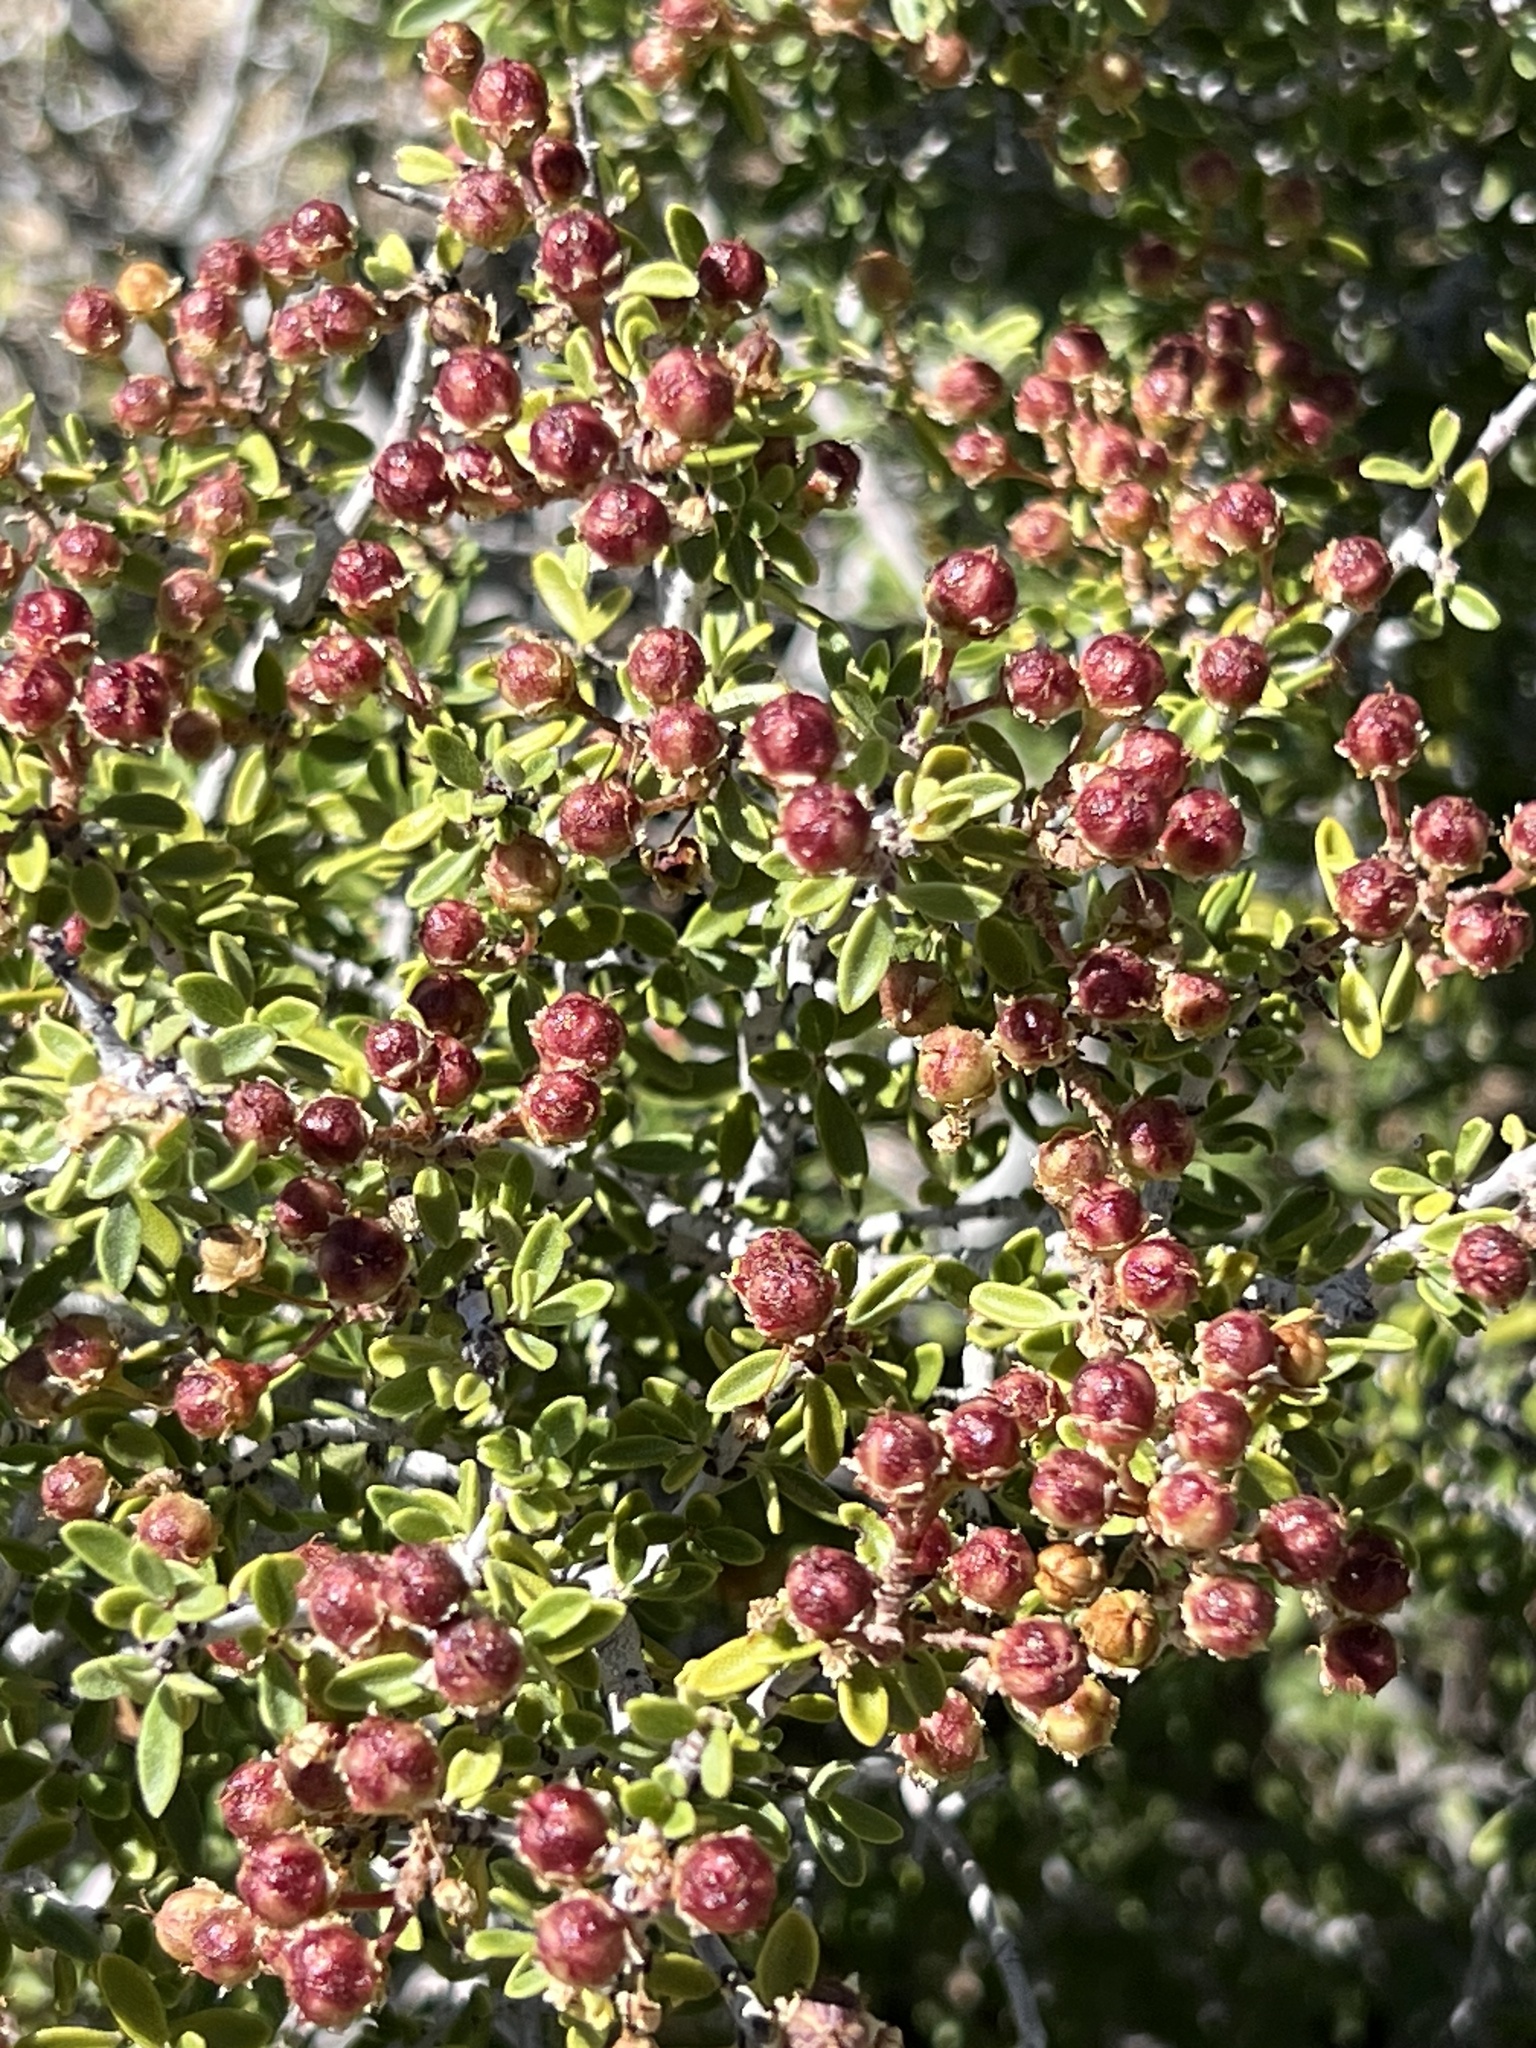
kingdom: Plantae
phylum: Tracheophyta
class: Magnoliopsida
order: Rosales
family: Rhamnaceae
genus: Ceanothus
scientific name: Ceanothus pauciflorus
